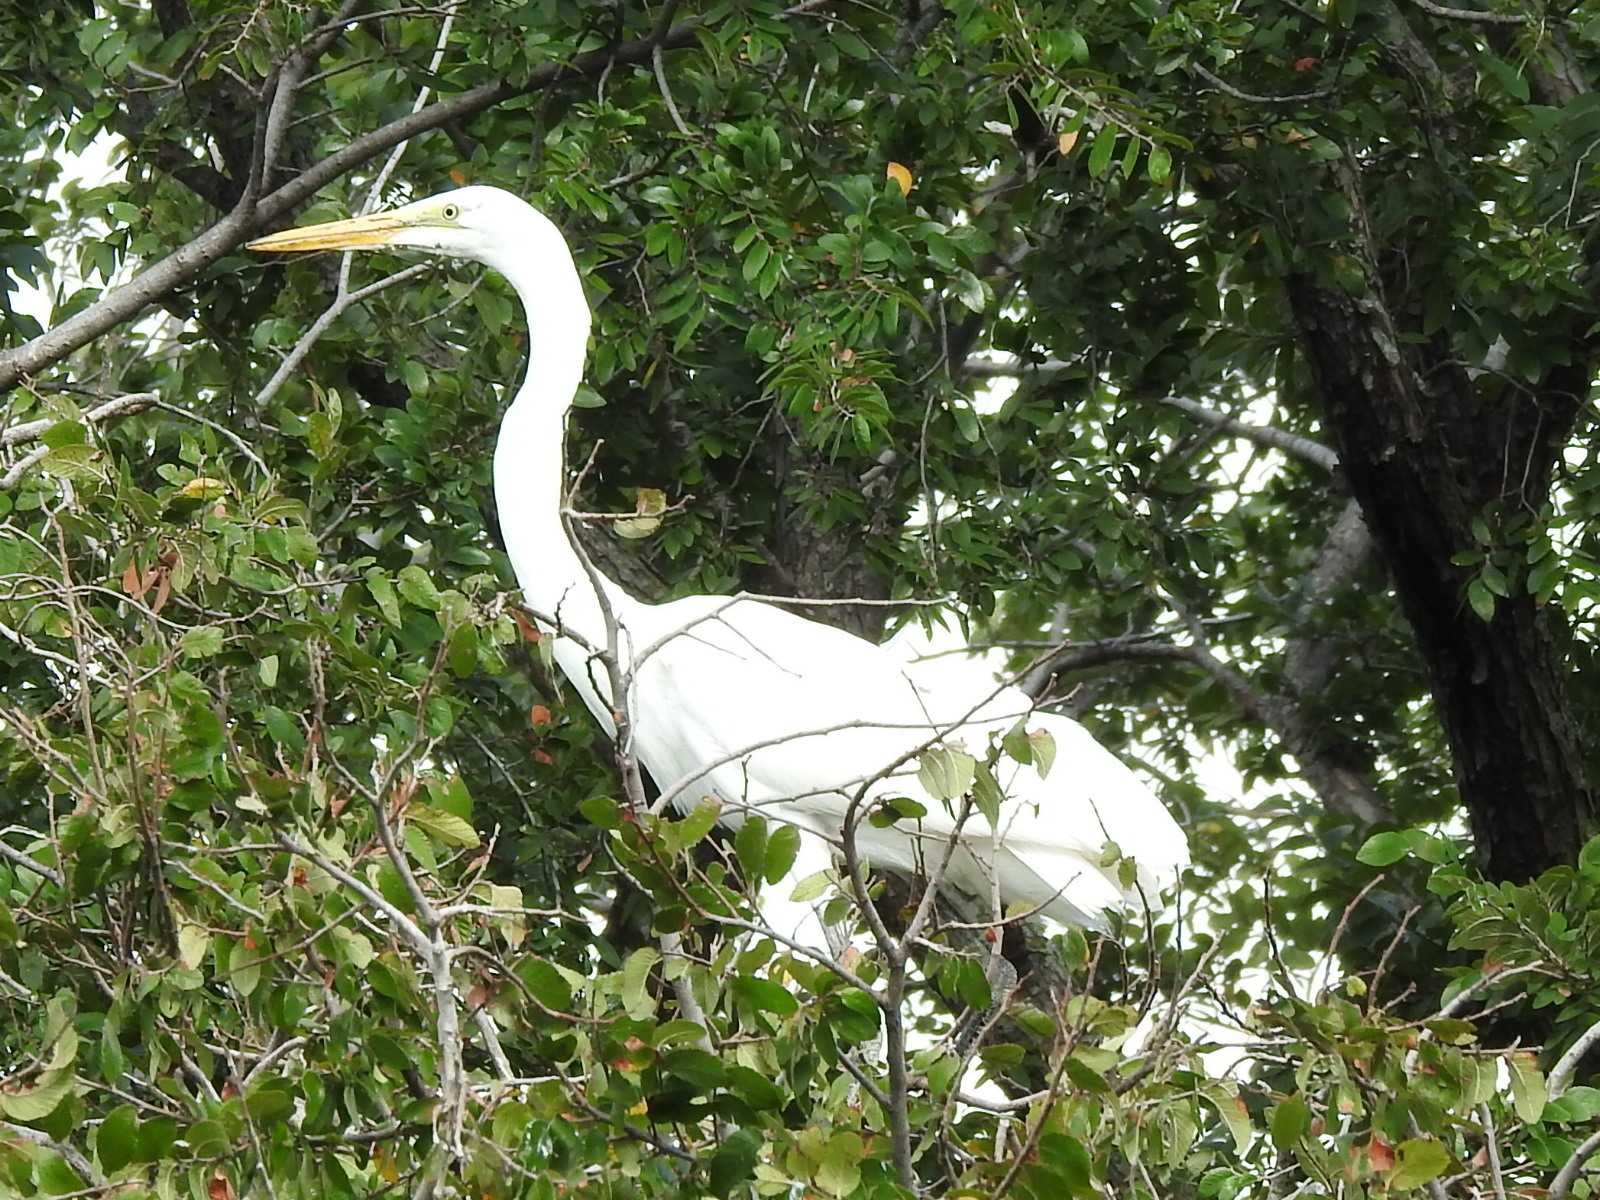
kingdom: Animalia
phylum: Chordata
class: Aves
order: Pelecaniformes
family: Ardeidae
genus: Ardea
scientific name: Ardea alba
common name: Great egret
